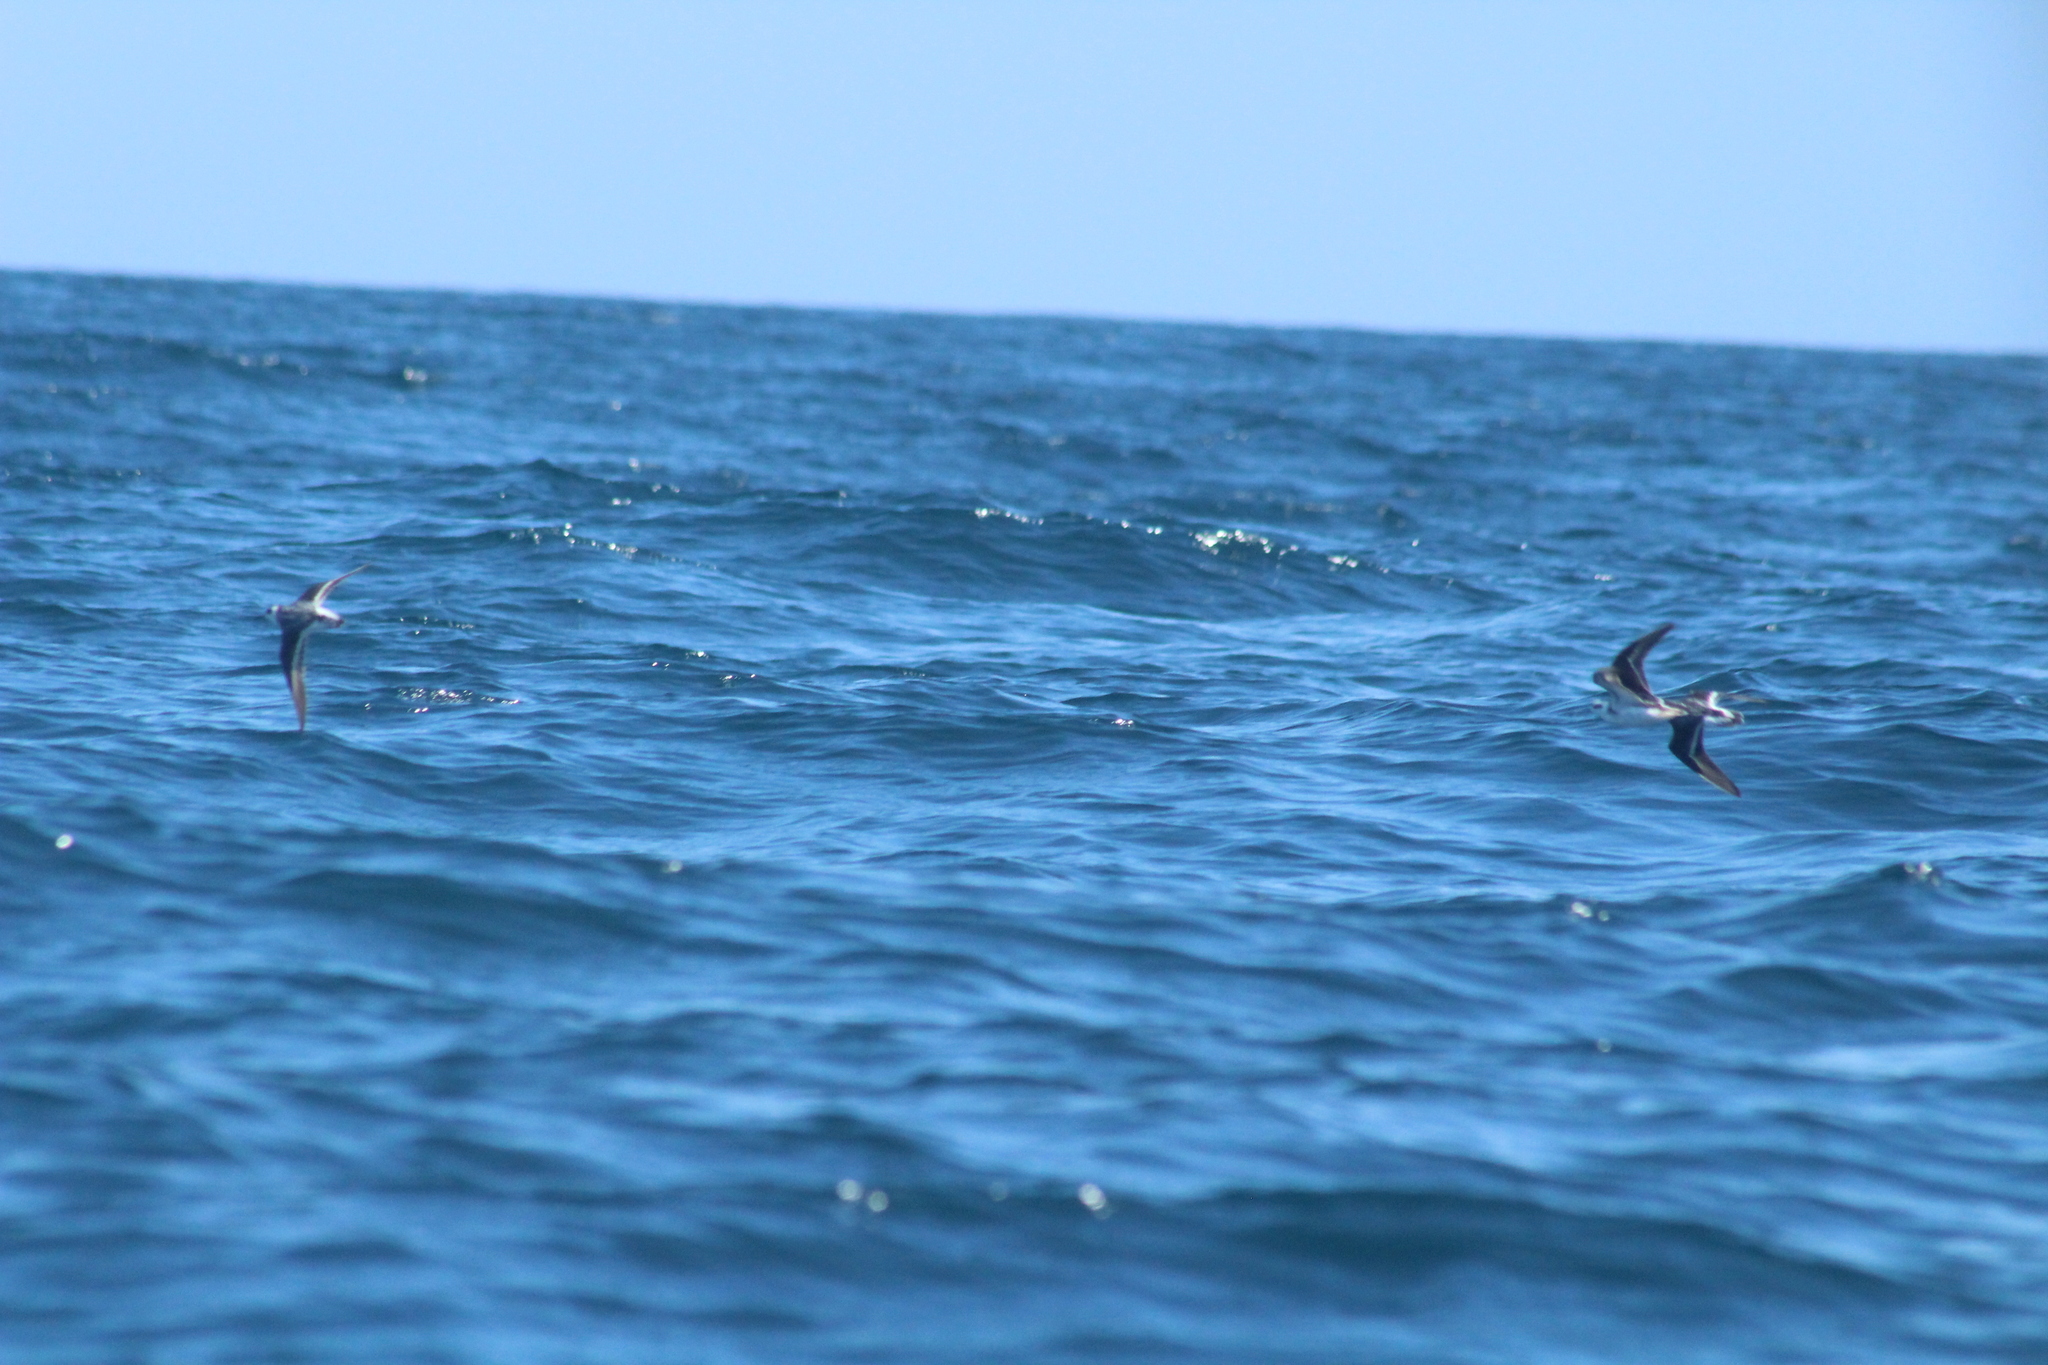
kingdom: Animalia
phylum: Chordata
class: Aves
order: Charadriiformes
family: Scolopacidae
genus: Phalaropus
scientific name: Phalaropus lobatus
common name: Red-necked phalarope
